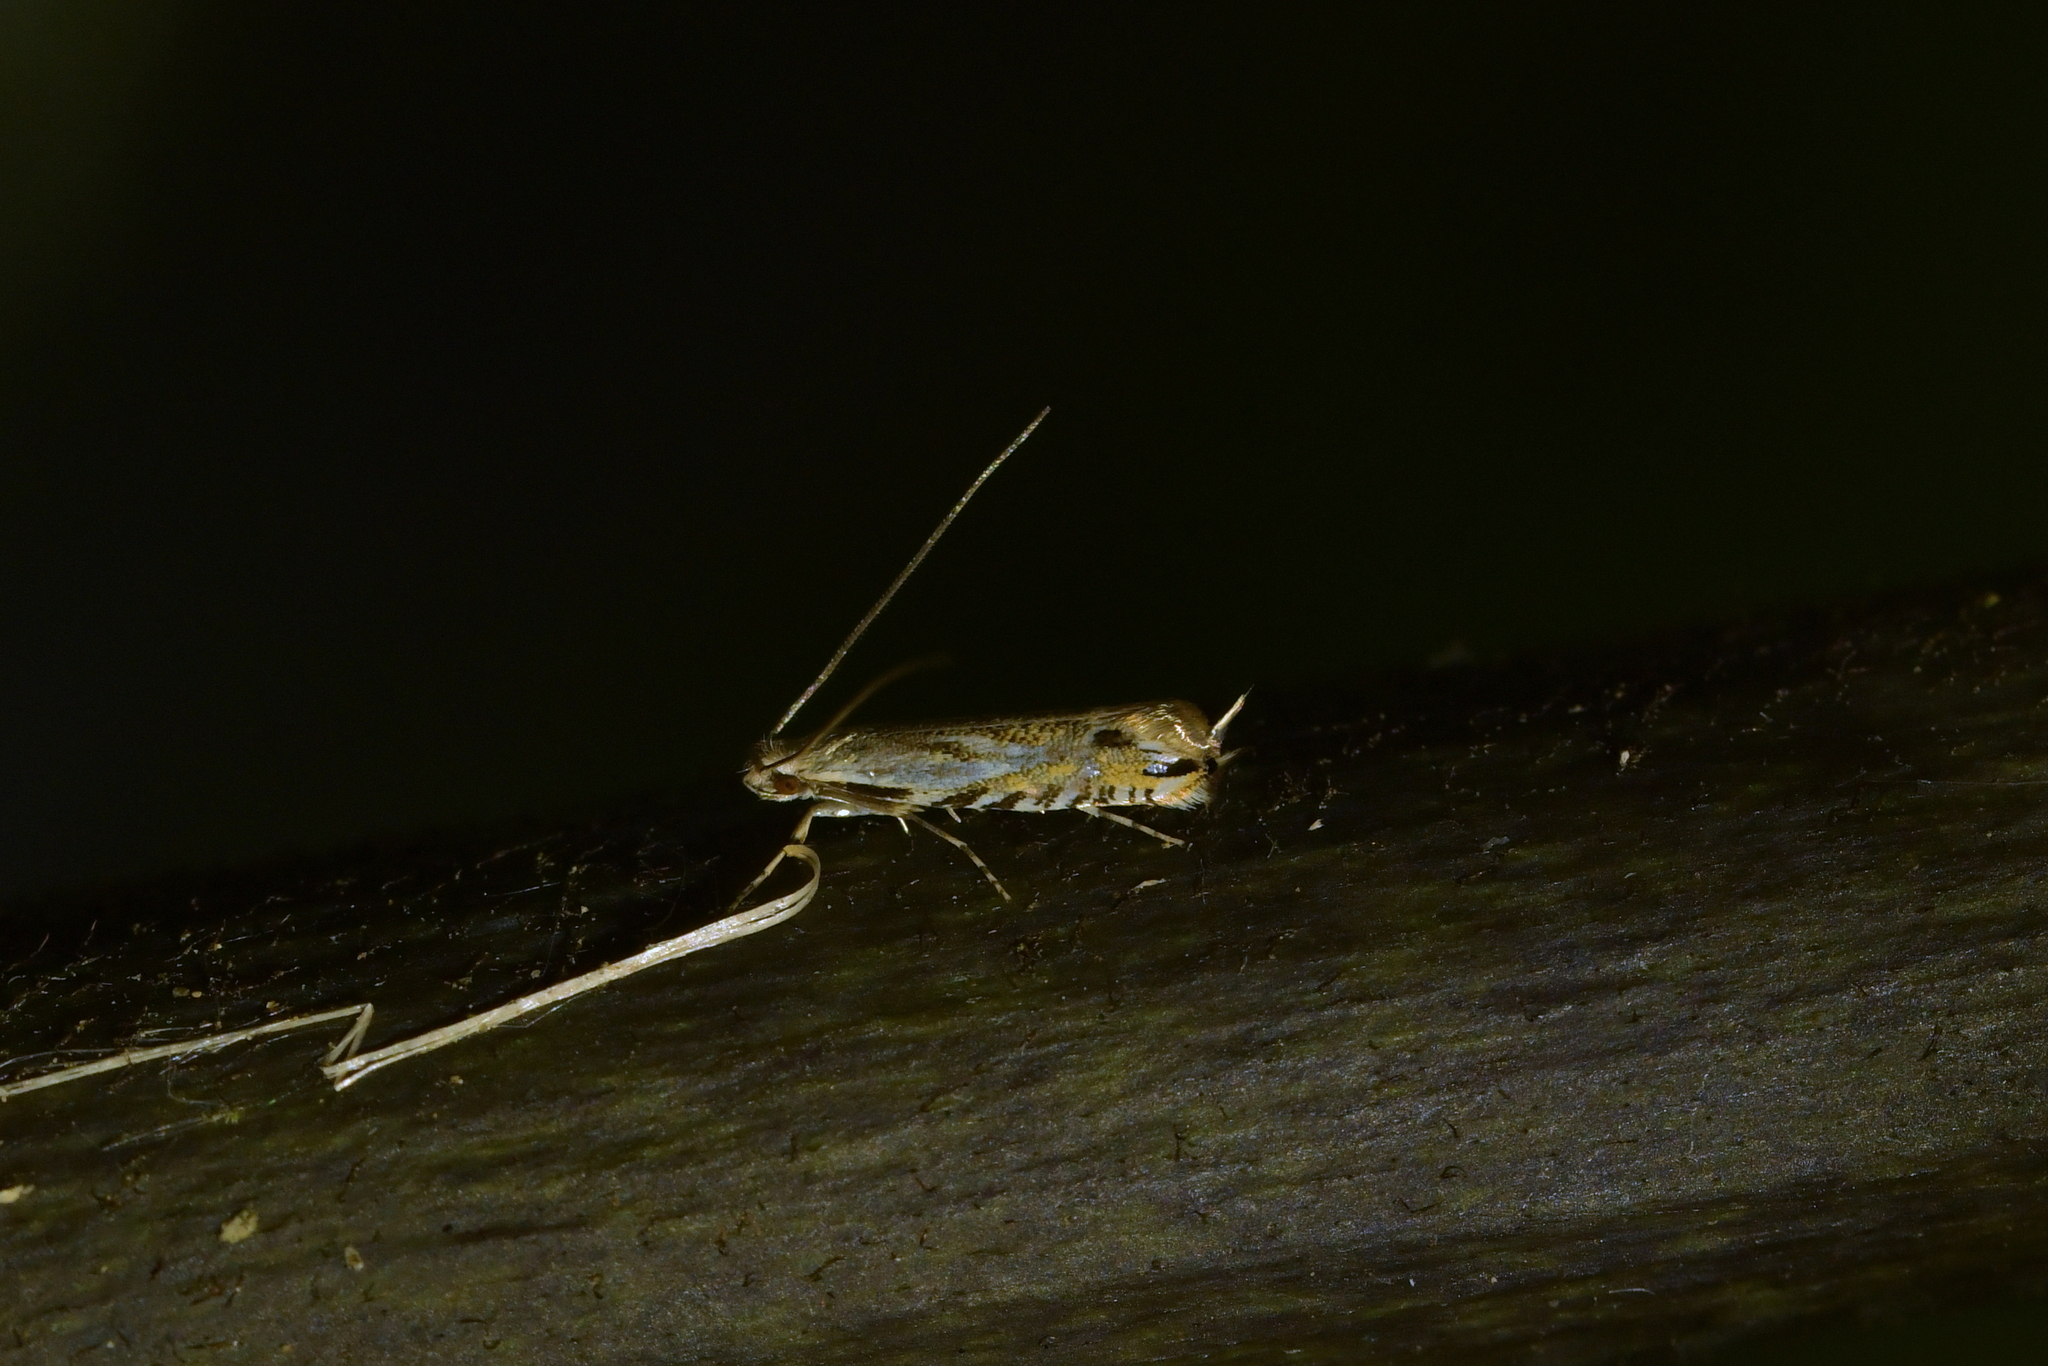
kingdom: Animalia
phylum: Arthropoda
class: Insecta
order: Lepidoptera
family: Tineidae
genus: Erechthias
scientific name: Erechthias decoranda
